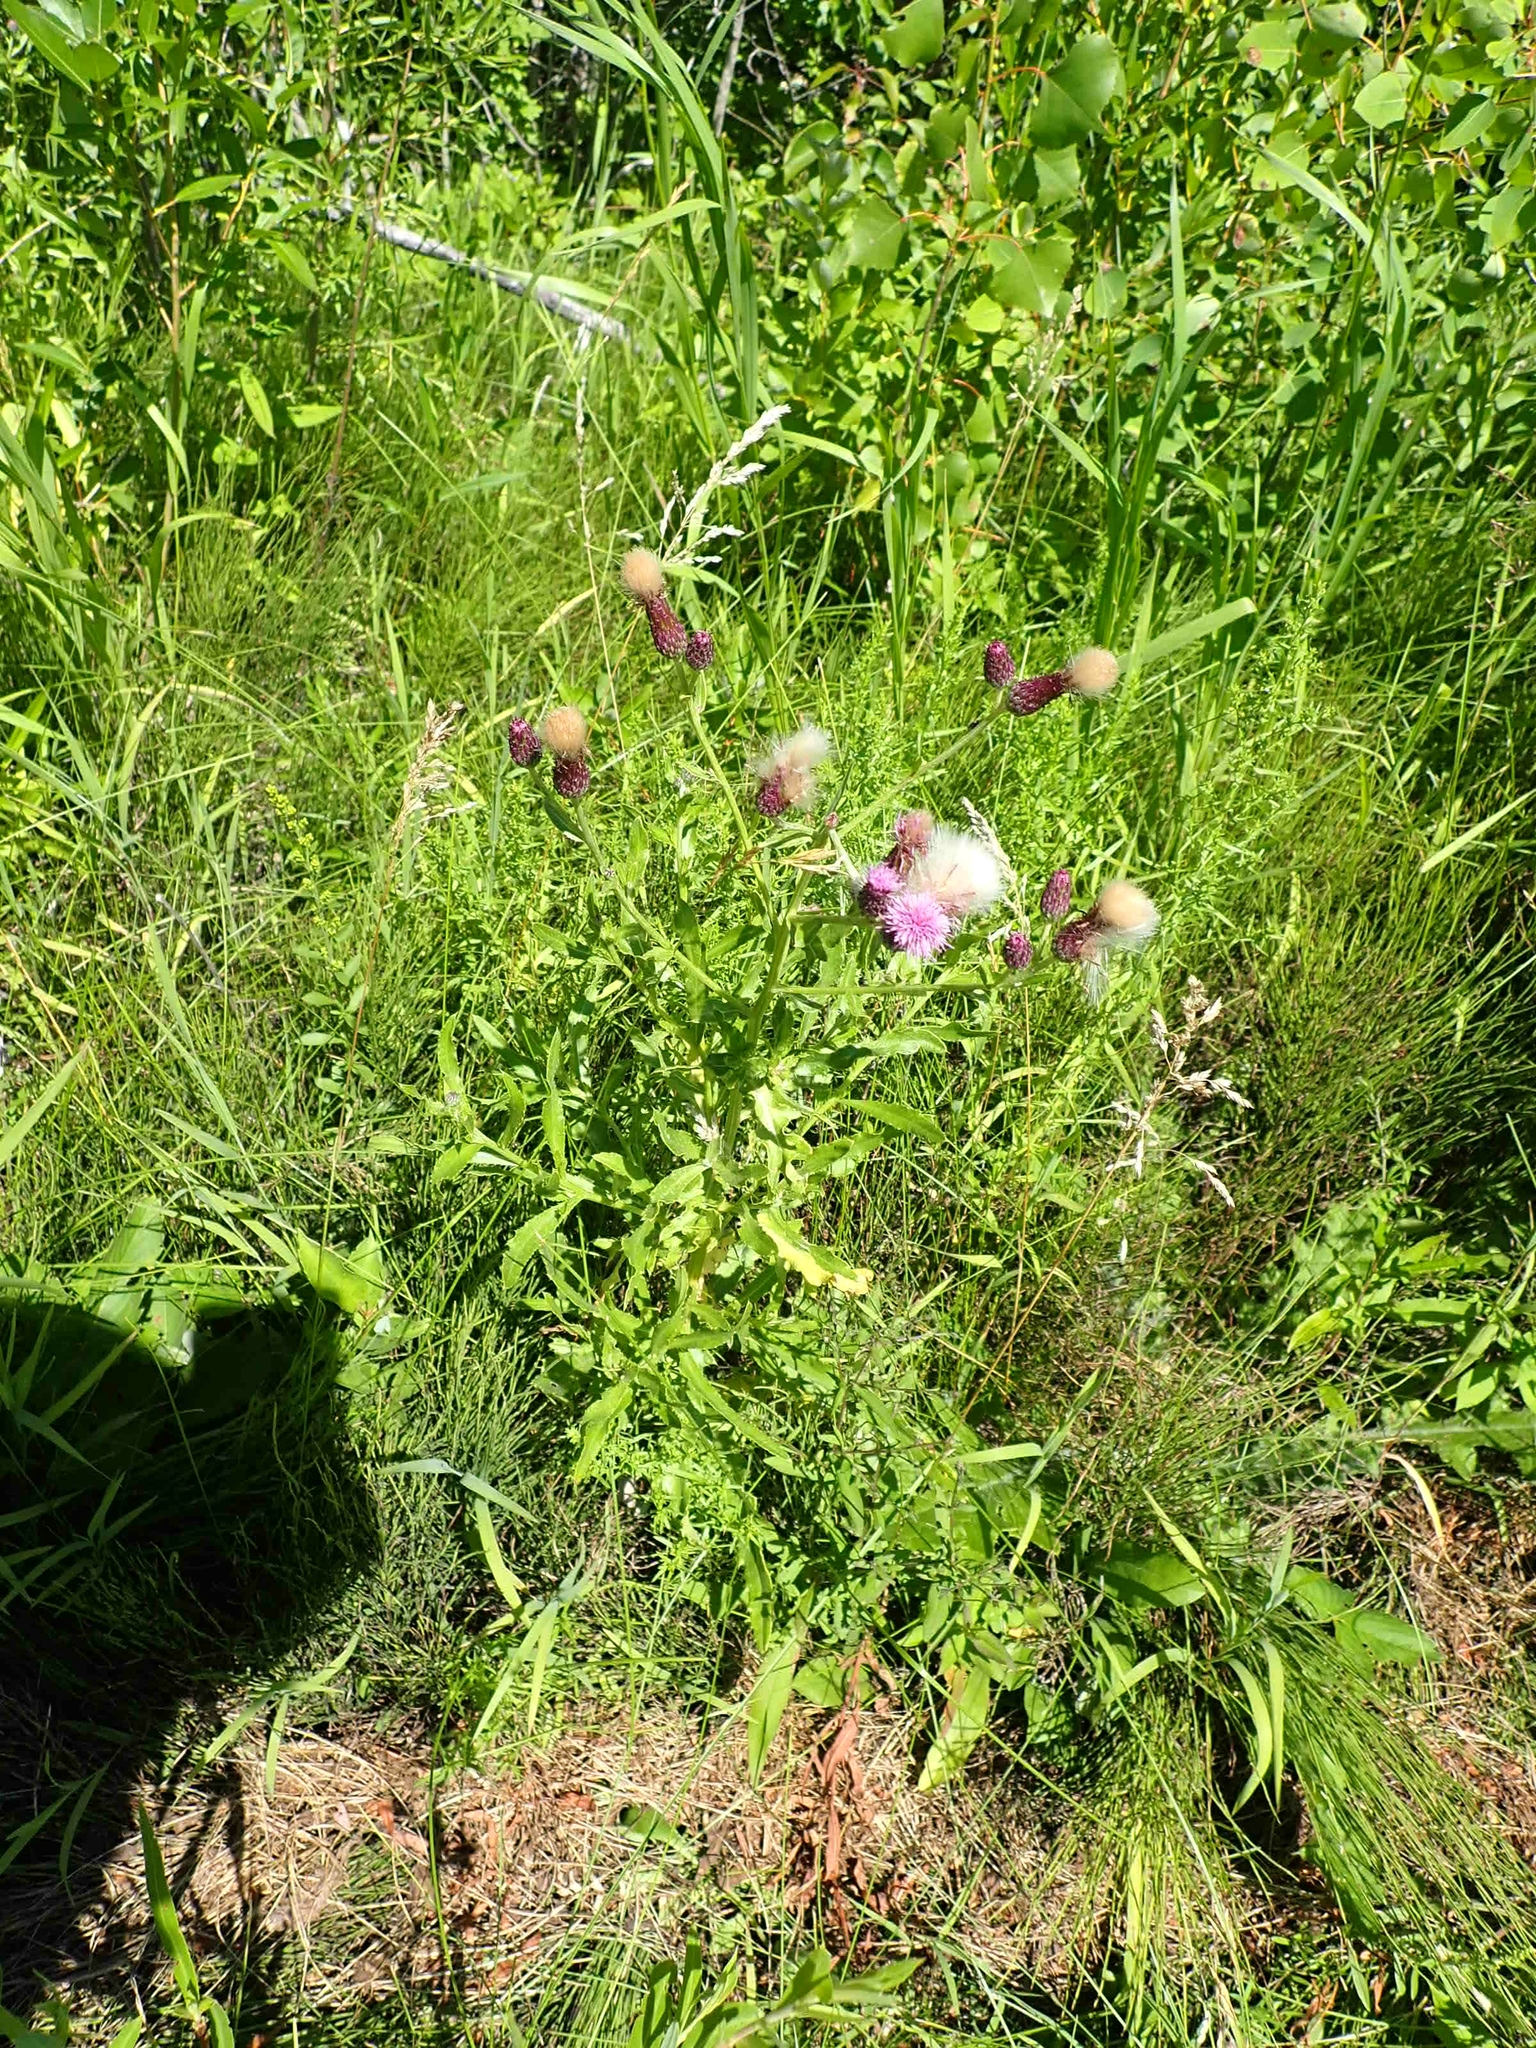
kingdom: Plantae
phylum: Tracheophyta
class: Magnoliopsida
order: Asterales
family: Asteraceae
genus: Cirsium
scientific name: Cirsium arvense
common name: Creeping thistle
